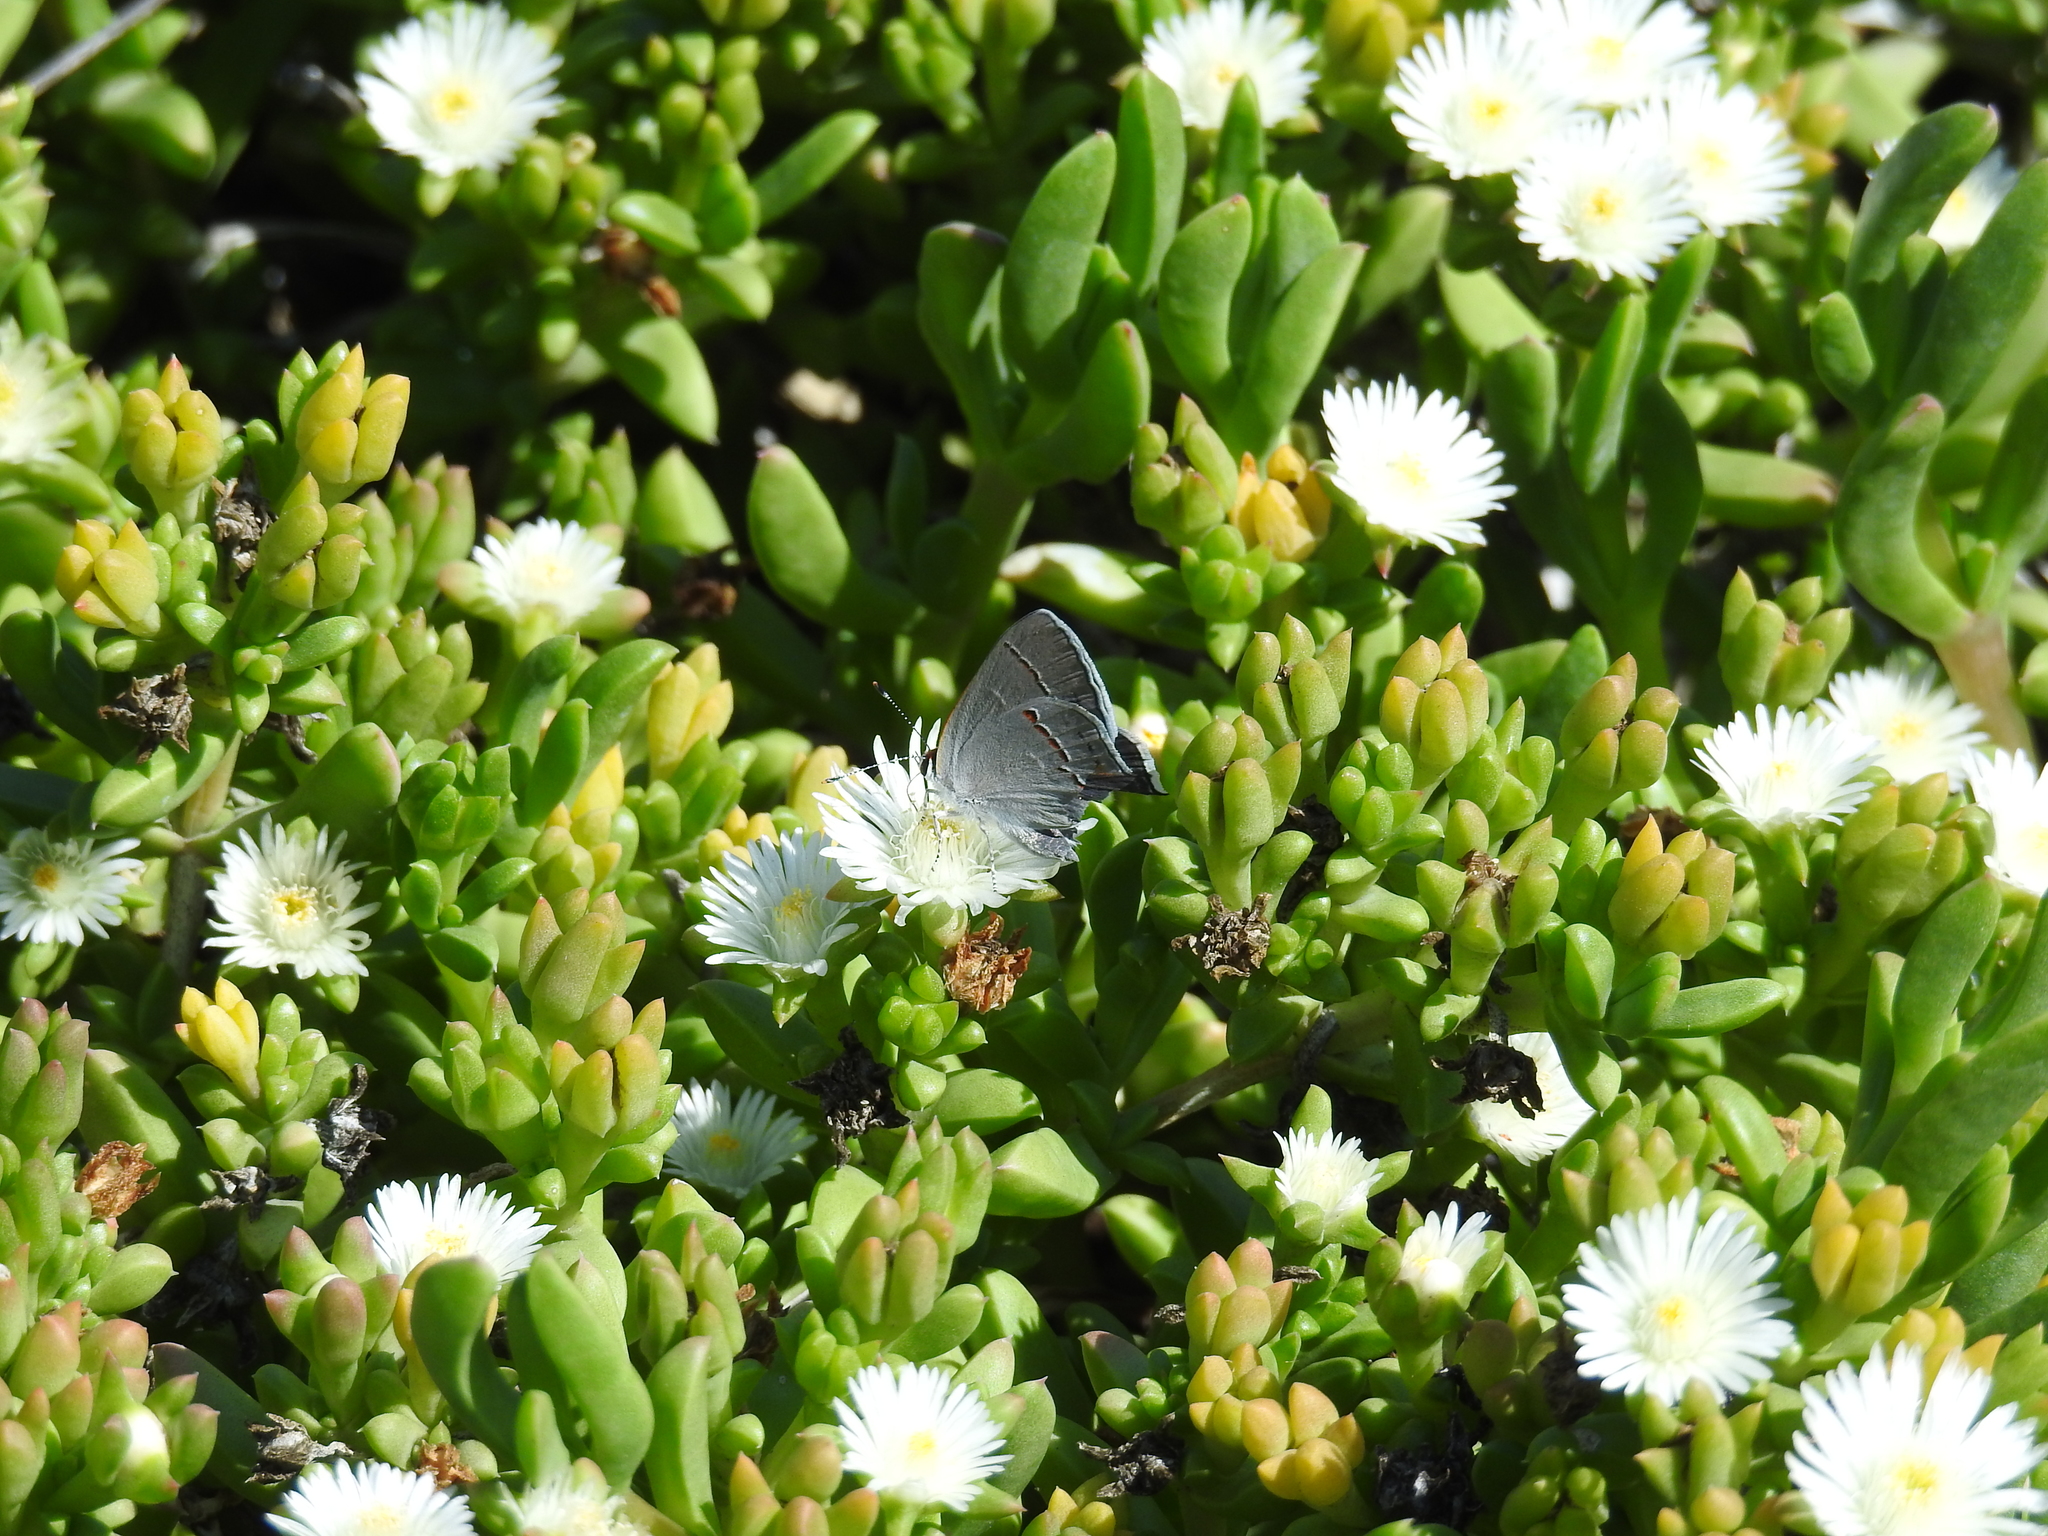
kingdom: Animalia
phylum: Arthropoda
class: Insecta
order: Lepidoptera
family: Lycaenidae
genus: Strymon
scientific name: Strymon melinus
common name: Gray hairstreak
